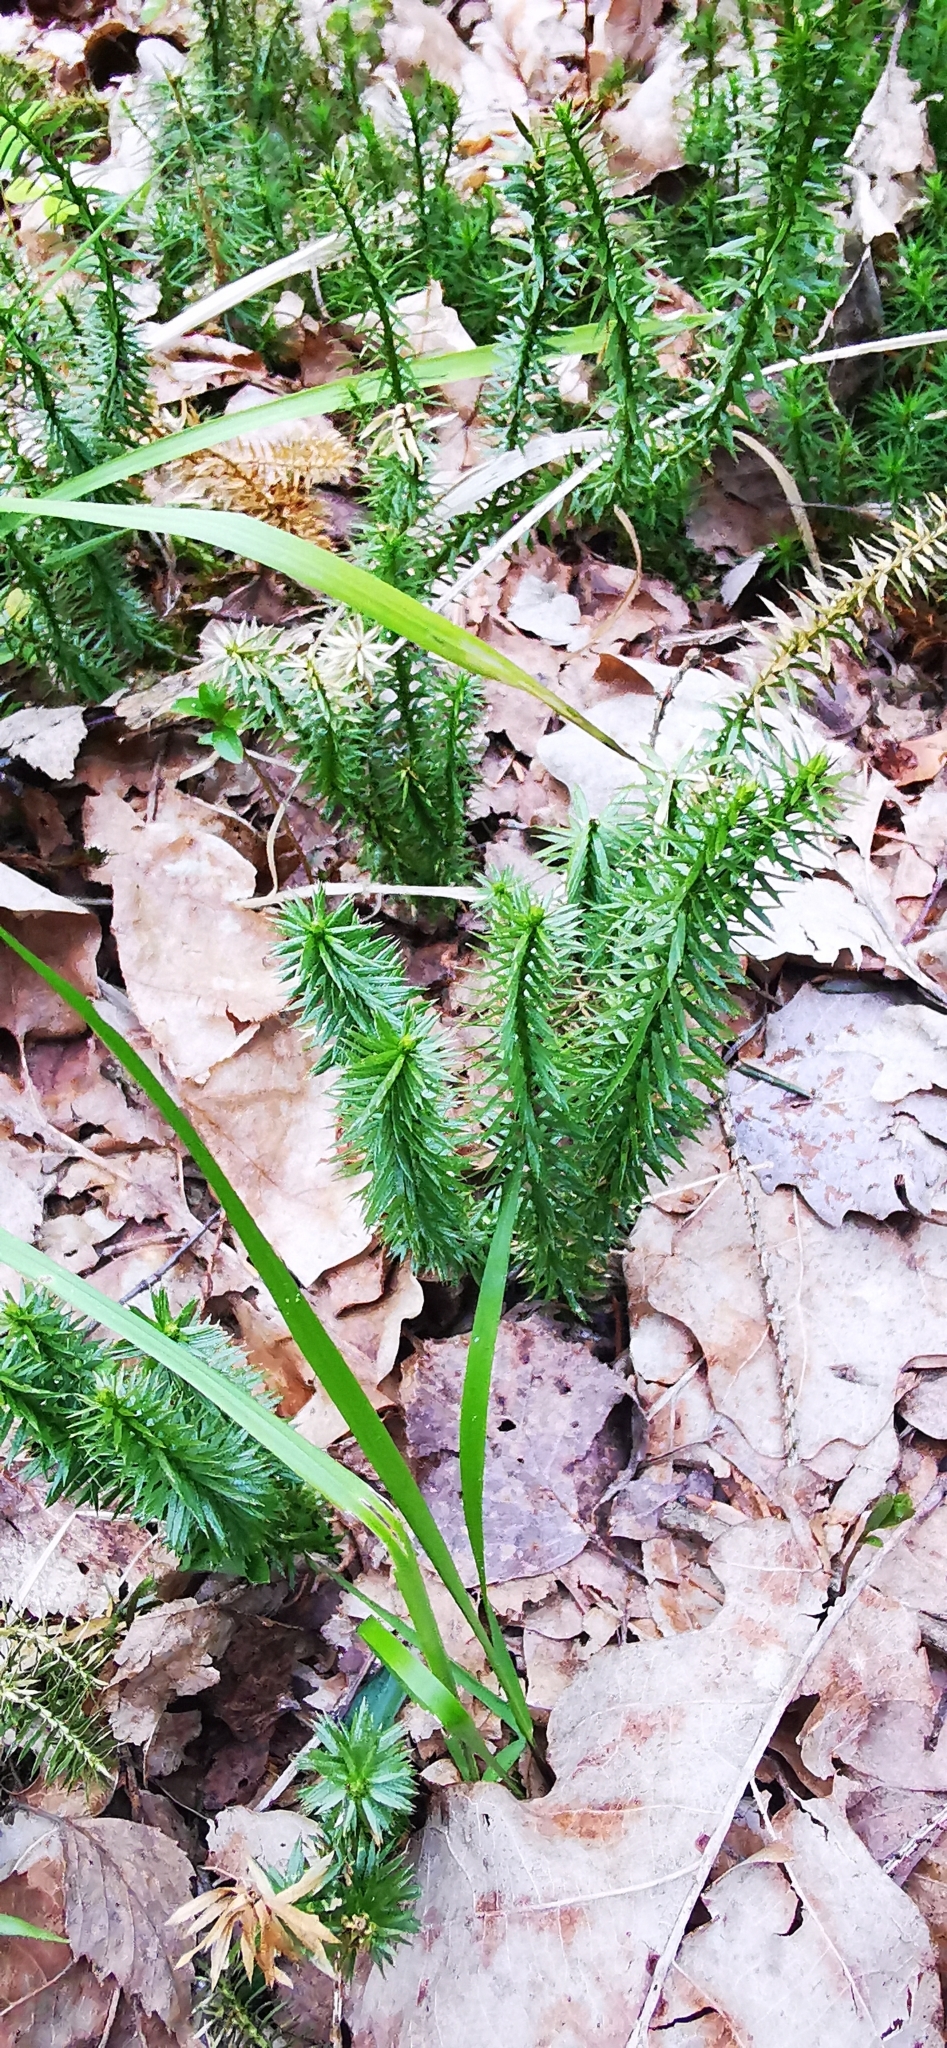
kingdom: Plantae
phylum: Tracheophyta
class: Lycopodiopsida
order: Lycopodiales
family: Lycopodiaceae
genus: Spinulum
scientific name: Spinulum annotinum
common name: Interrupted club-moss
